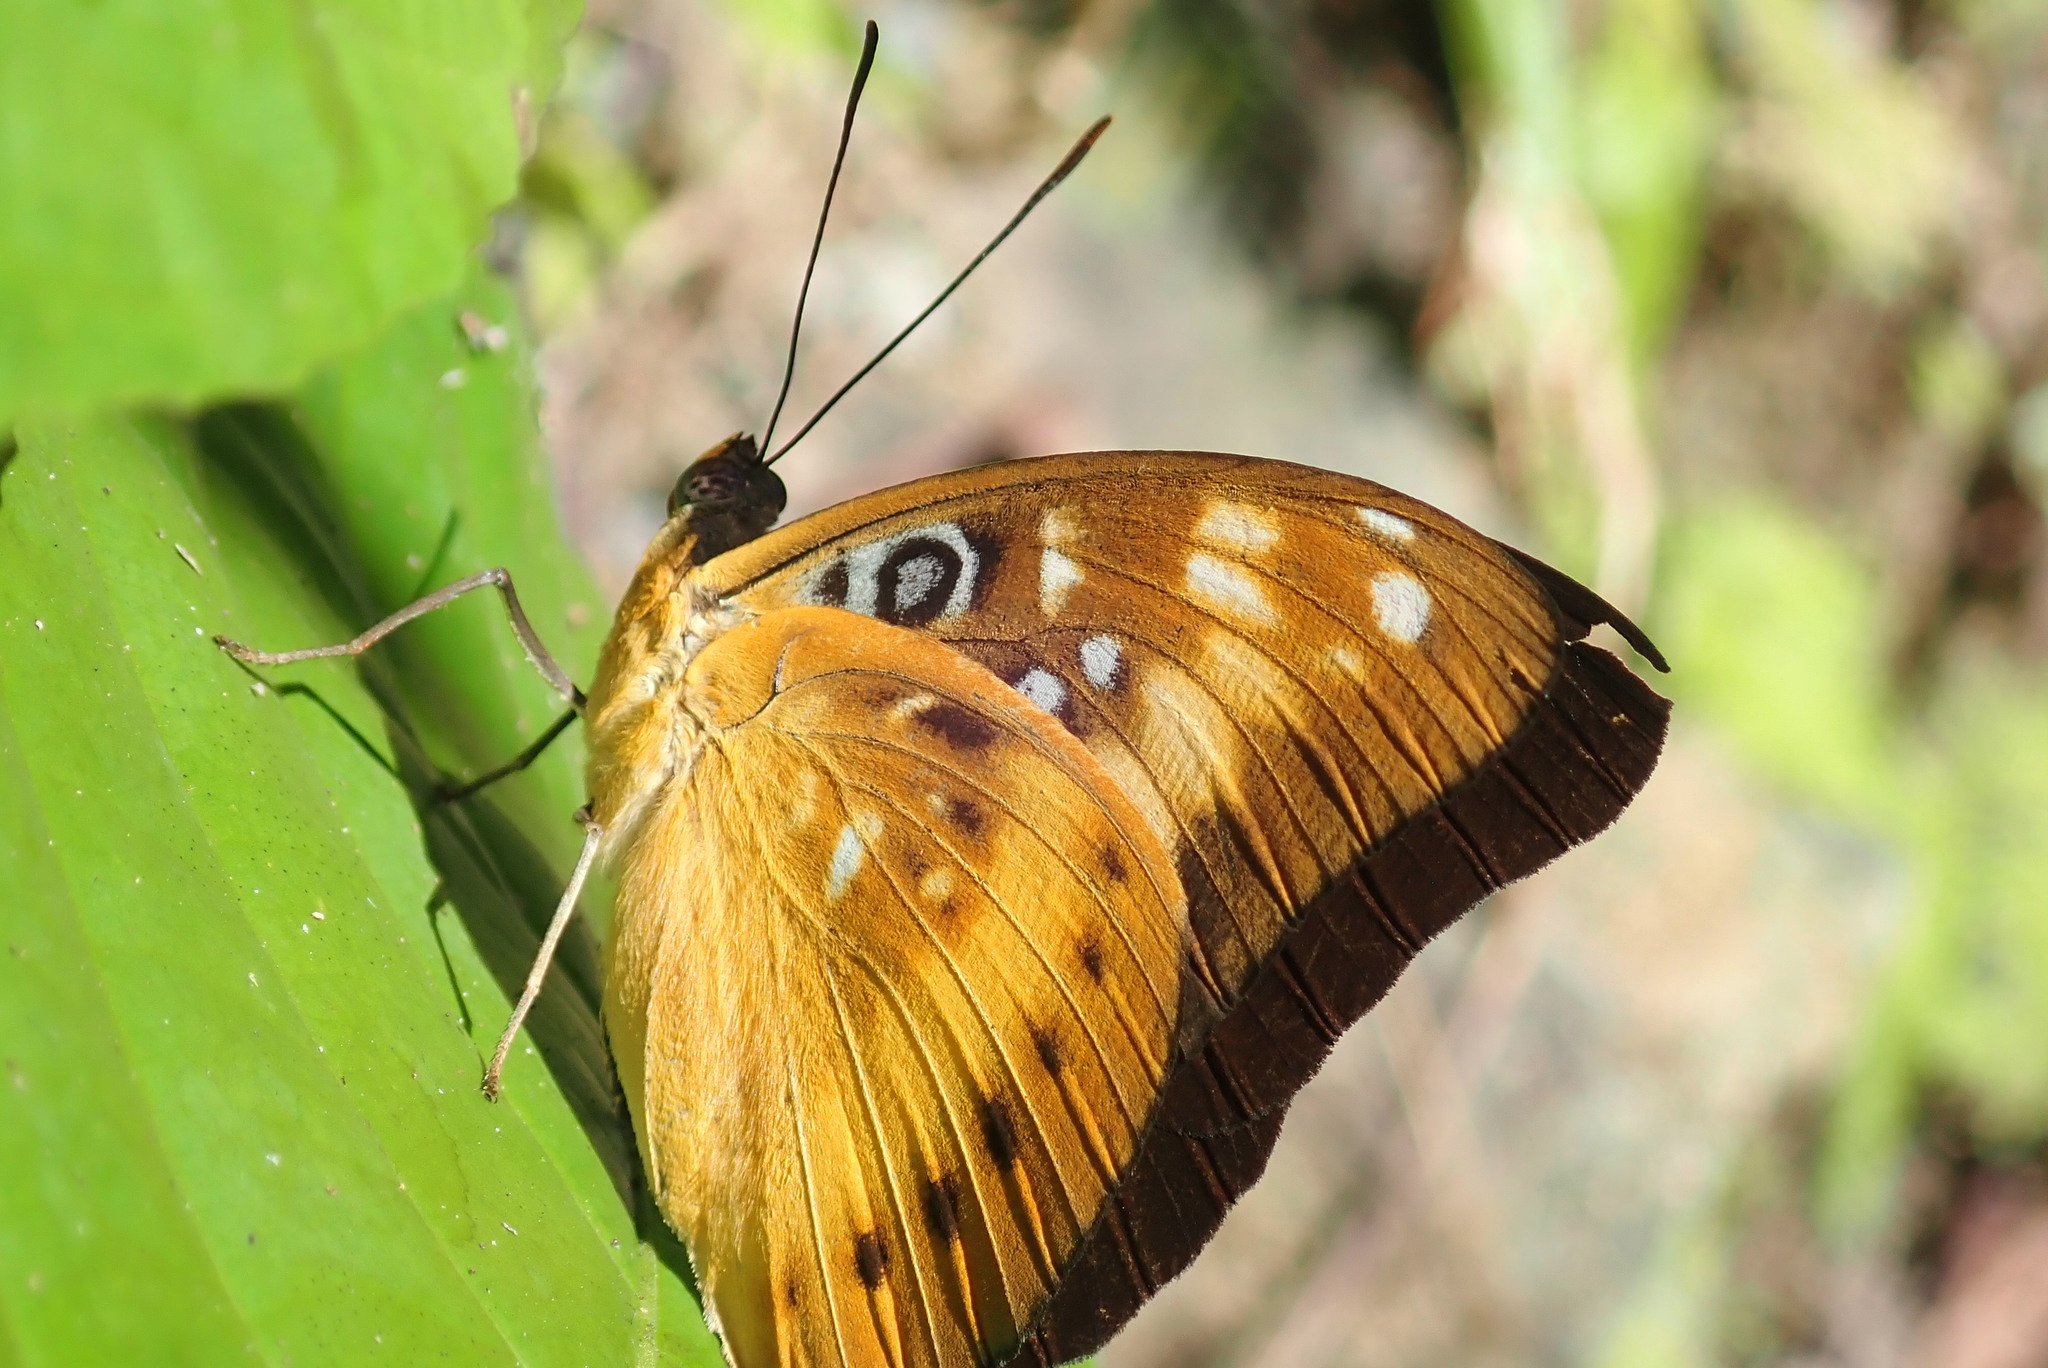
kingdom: Animalia
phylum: Arthropoda
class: Insecta
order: Lepidoptera
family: Nymphalidae
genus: Lexias
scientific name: Lexias aeropa
